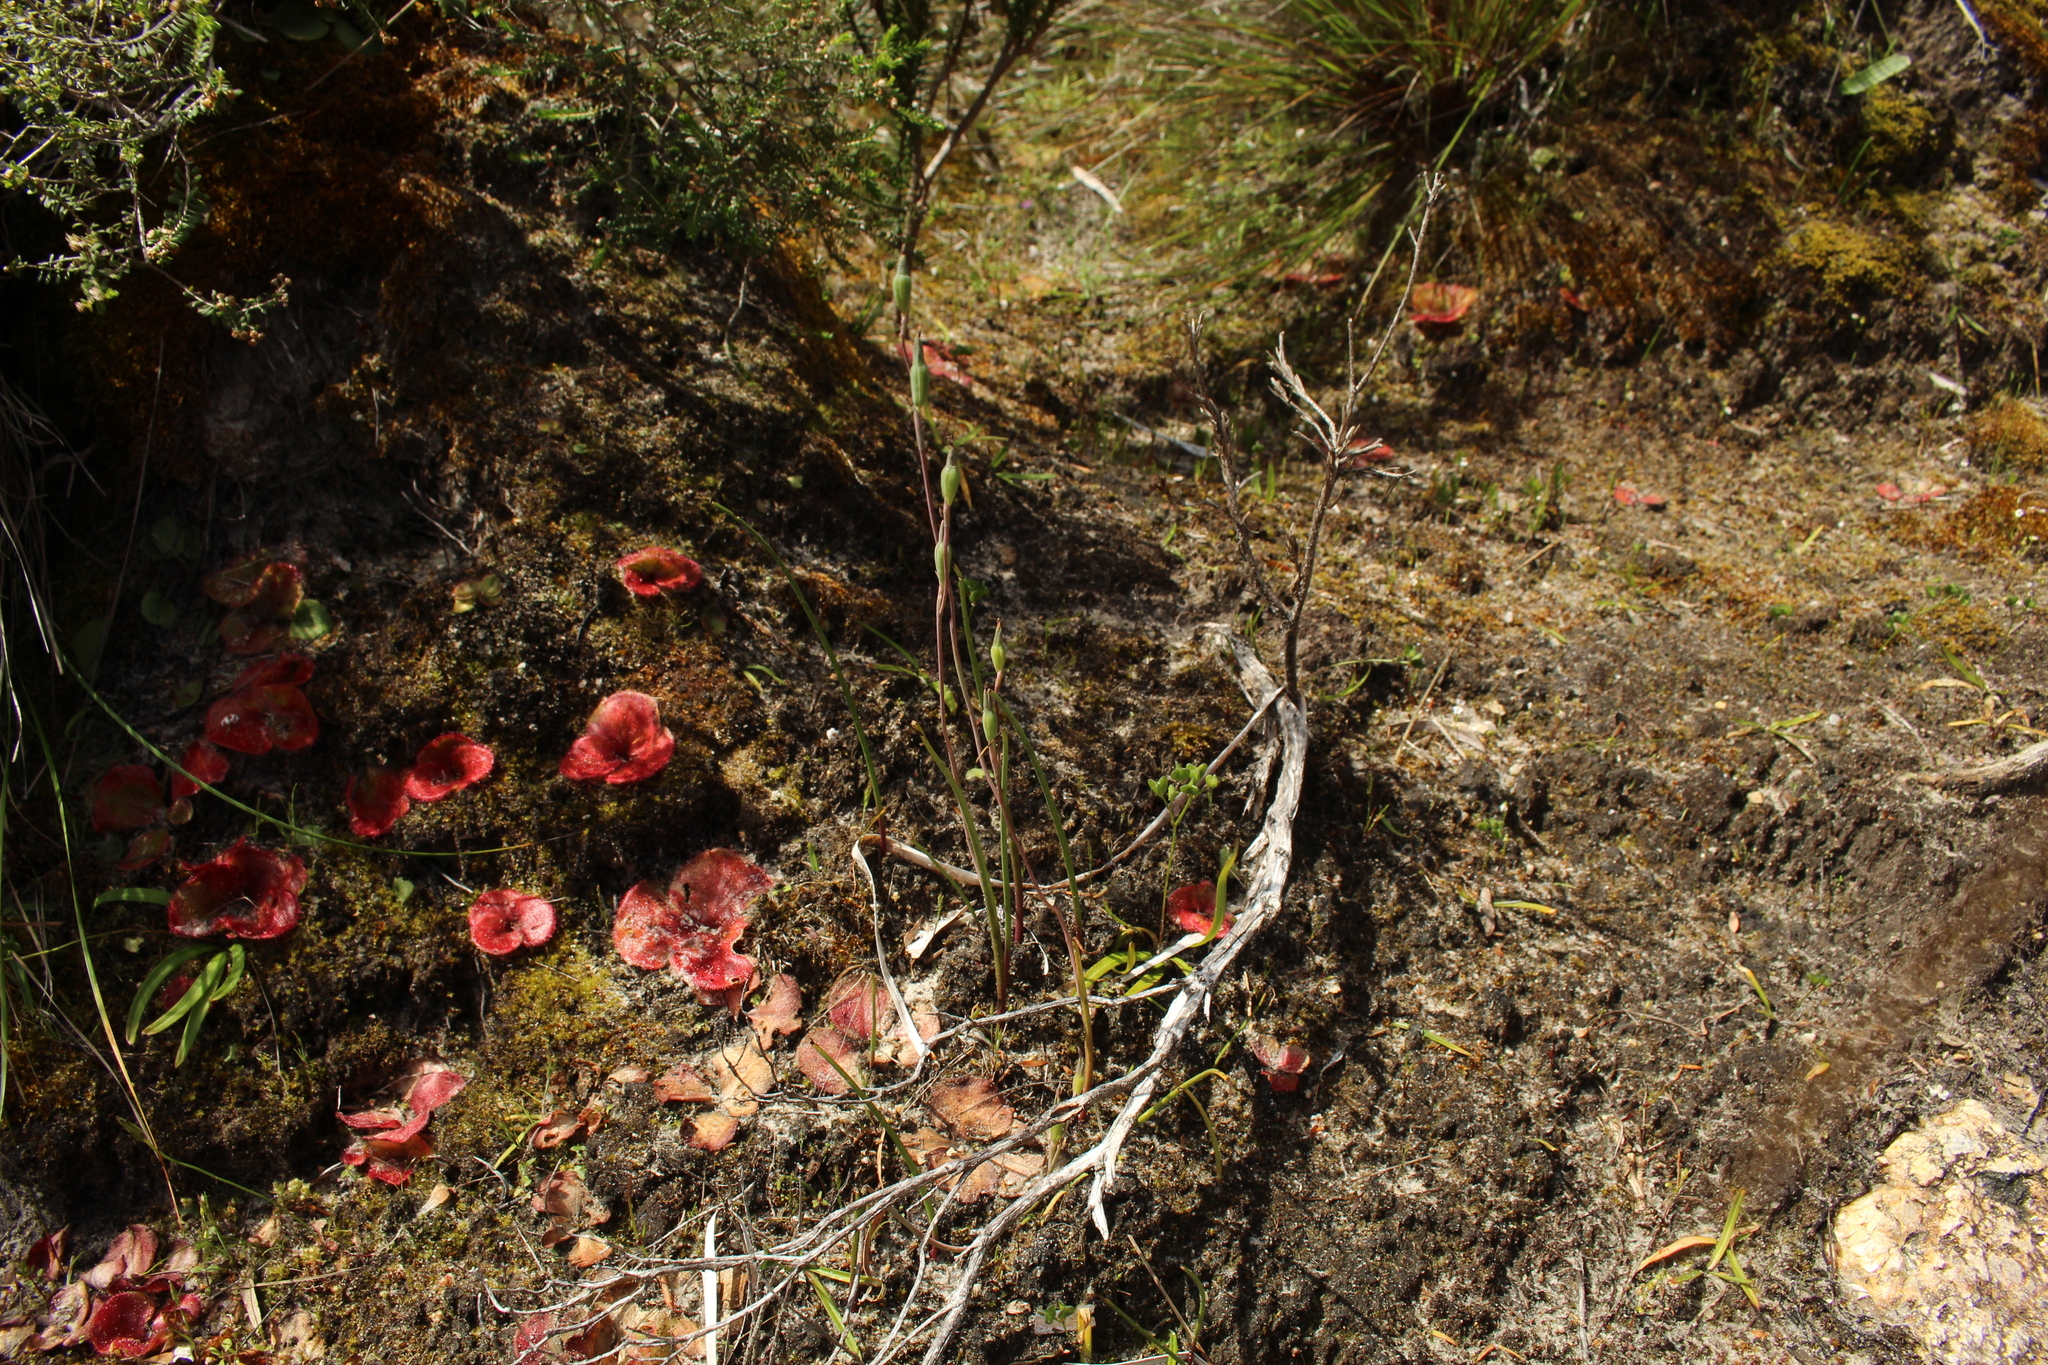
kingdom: Plantae
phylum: Tracheophyta
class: Magnoliopsida
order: Caryophyllales
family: Droseraceae
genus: Drosera
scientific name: Drosera erythrorhiza
